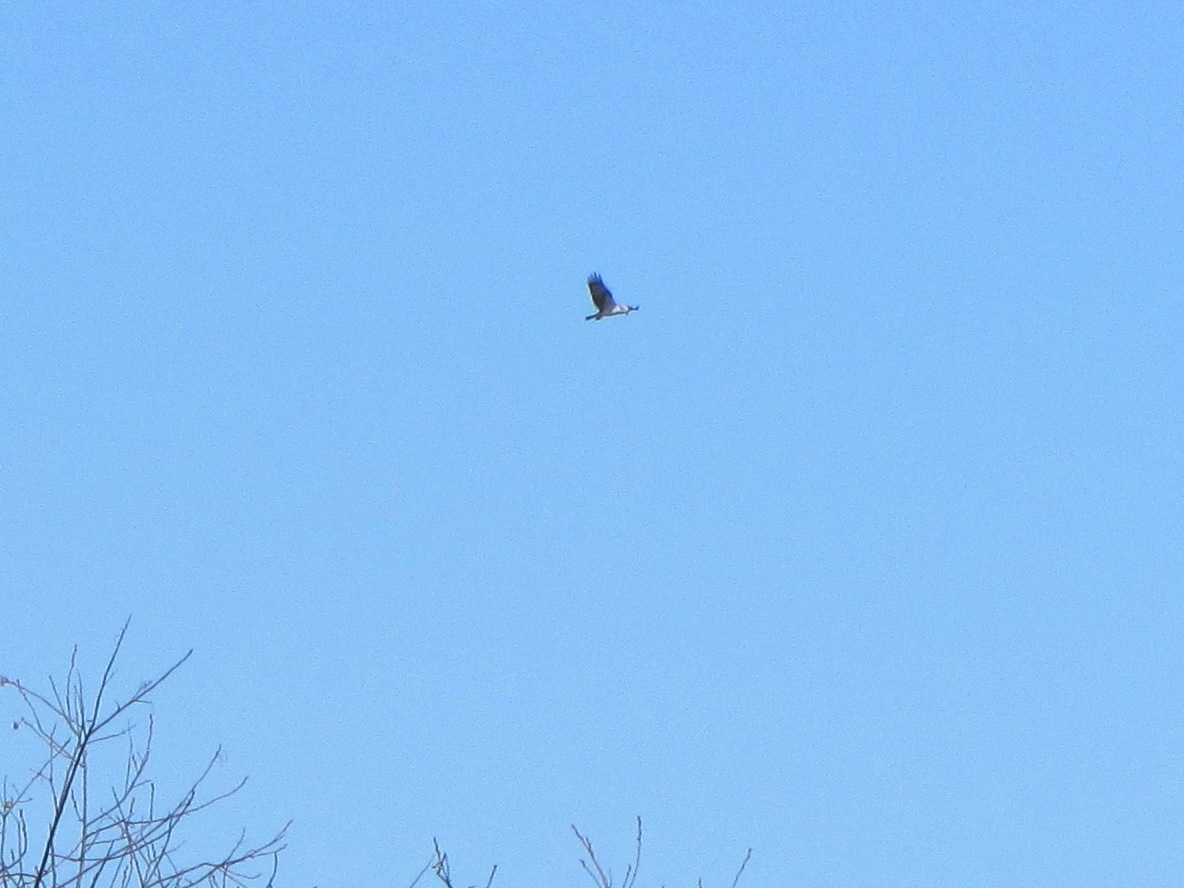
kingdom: Animalia
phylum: Chordata
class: Aves
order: Accipitriformes
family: Pandionidae
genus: Pandion
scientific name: Pandion haliaetus
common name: Osprey
